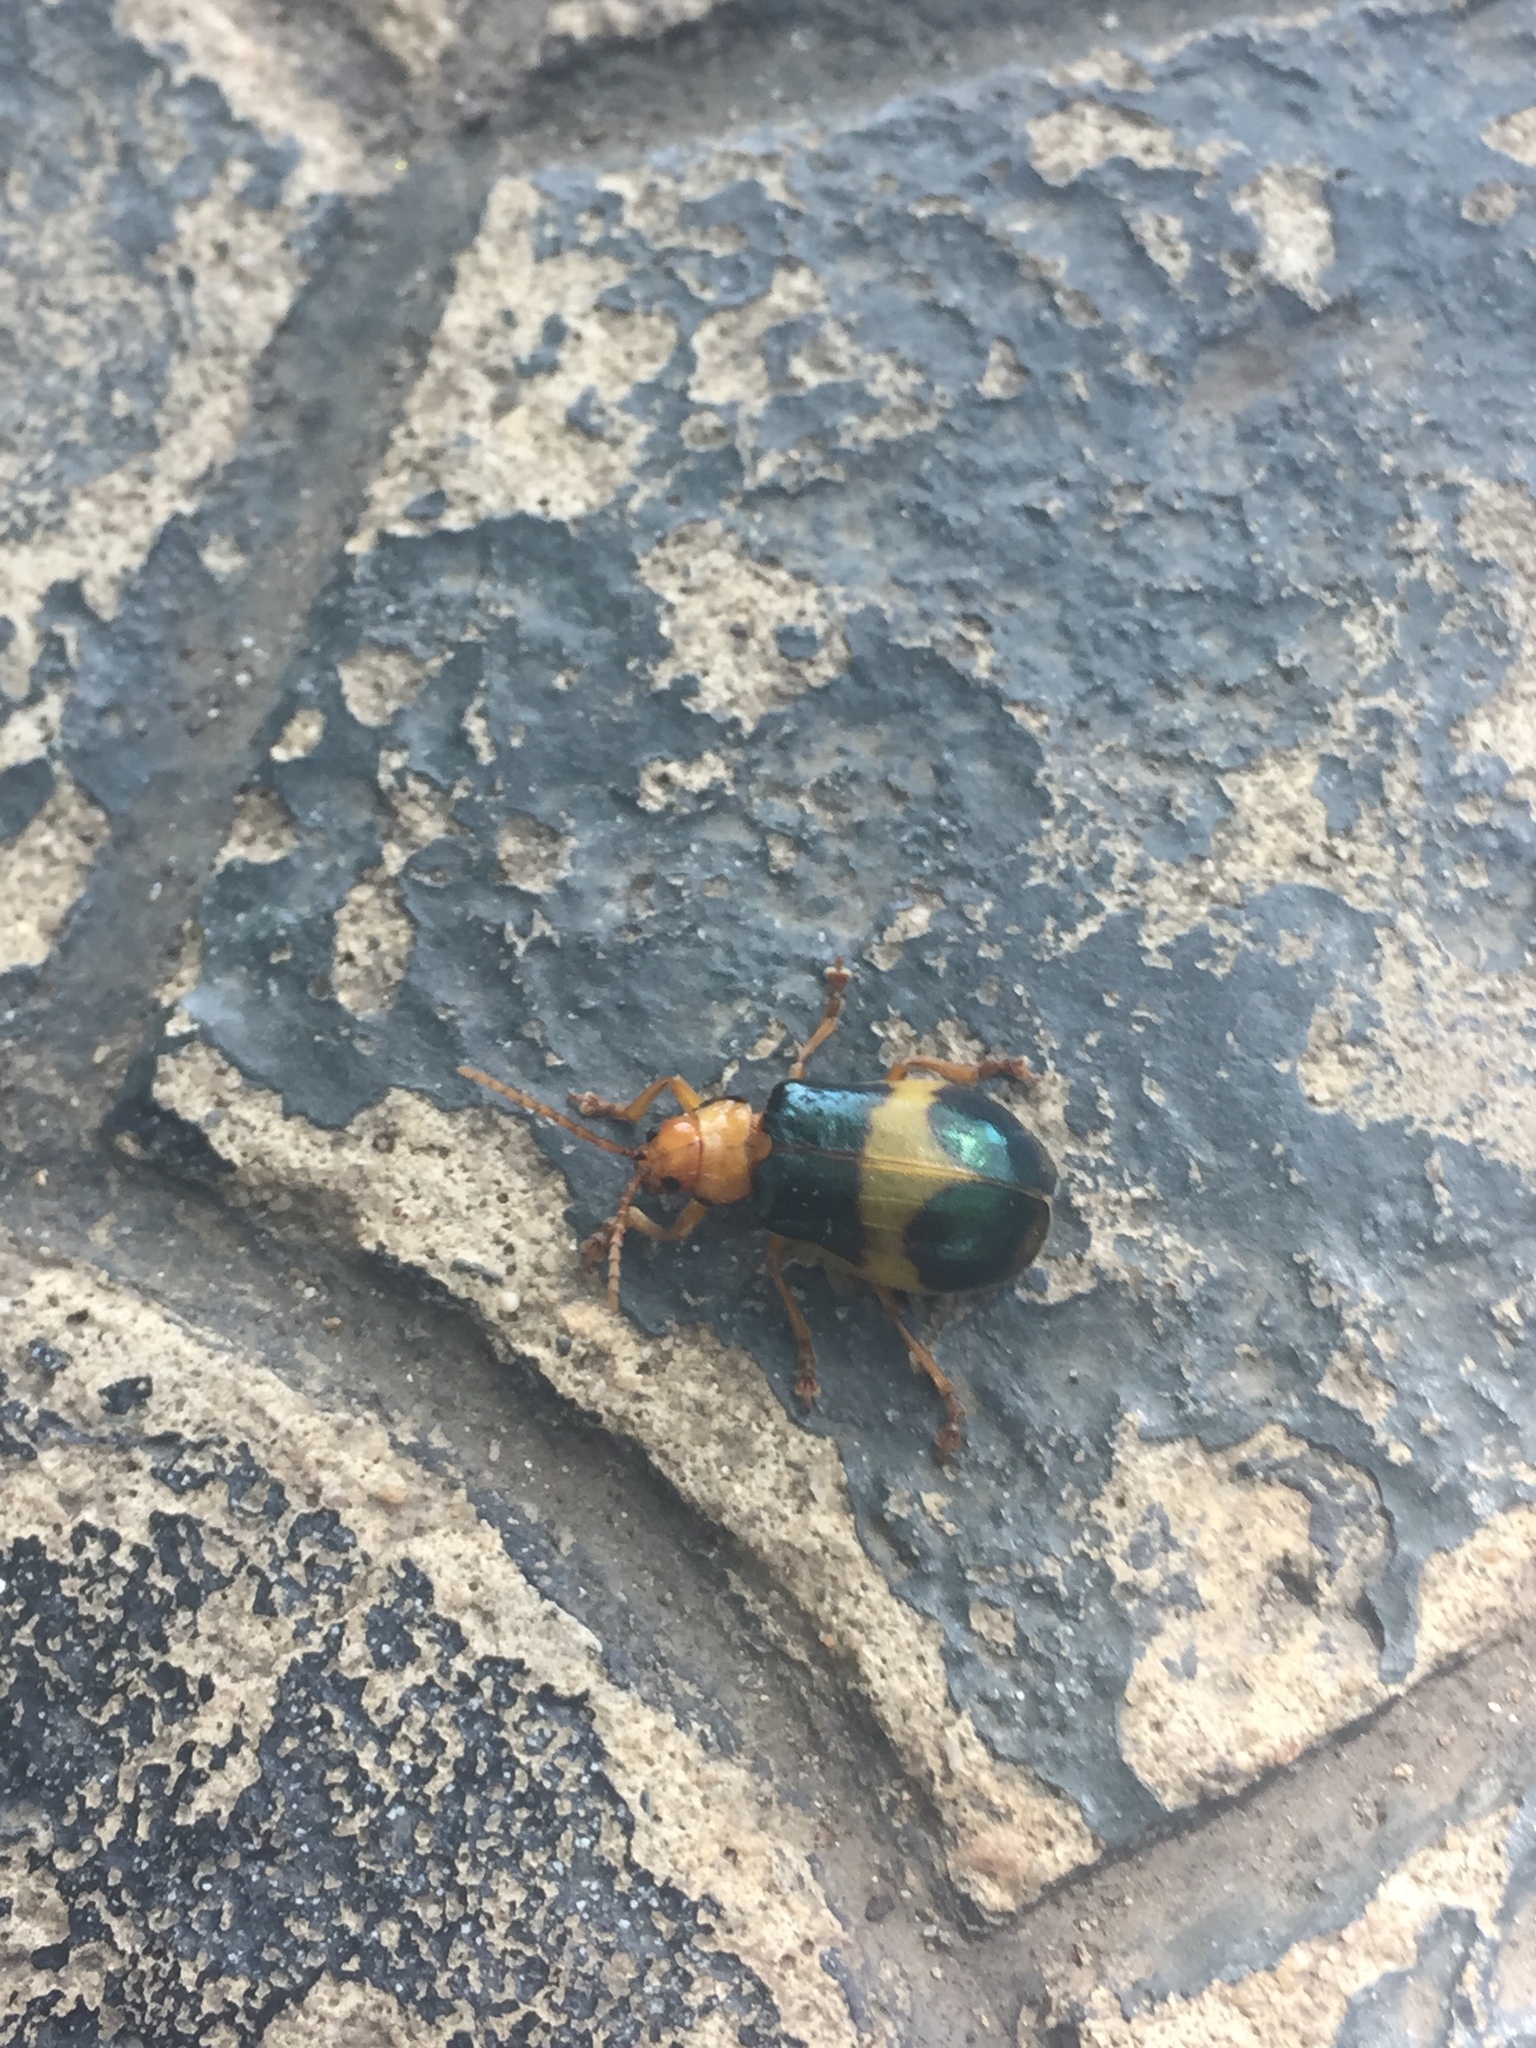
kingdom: Animalia
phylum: Arthropoda
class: Insecta
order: Coleoptera
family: Chrysomelidae
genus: Monocesta
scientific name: Monocesta coryli
